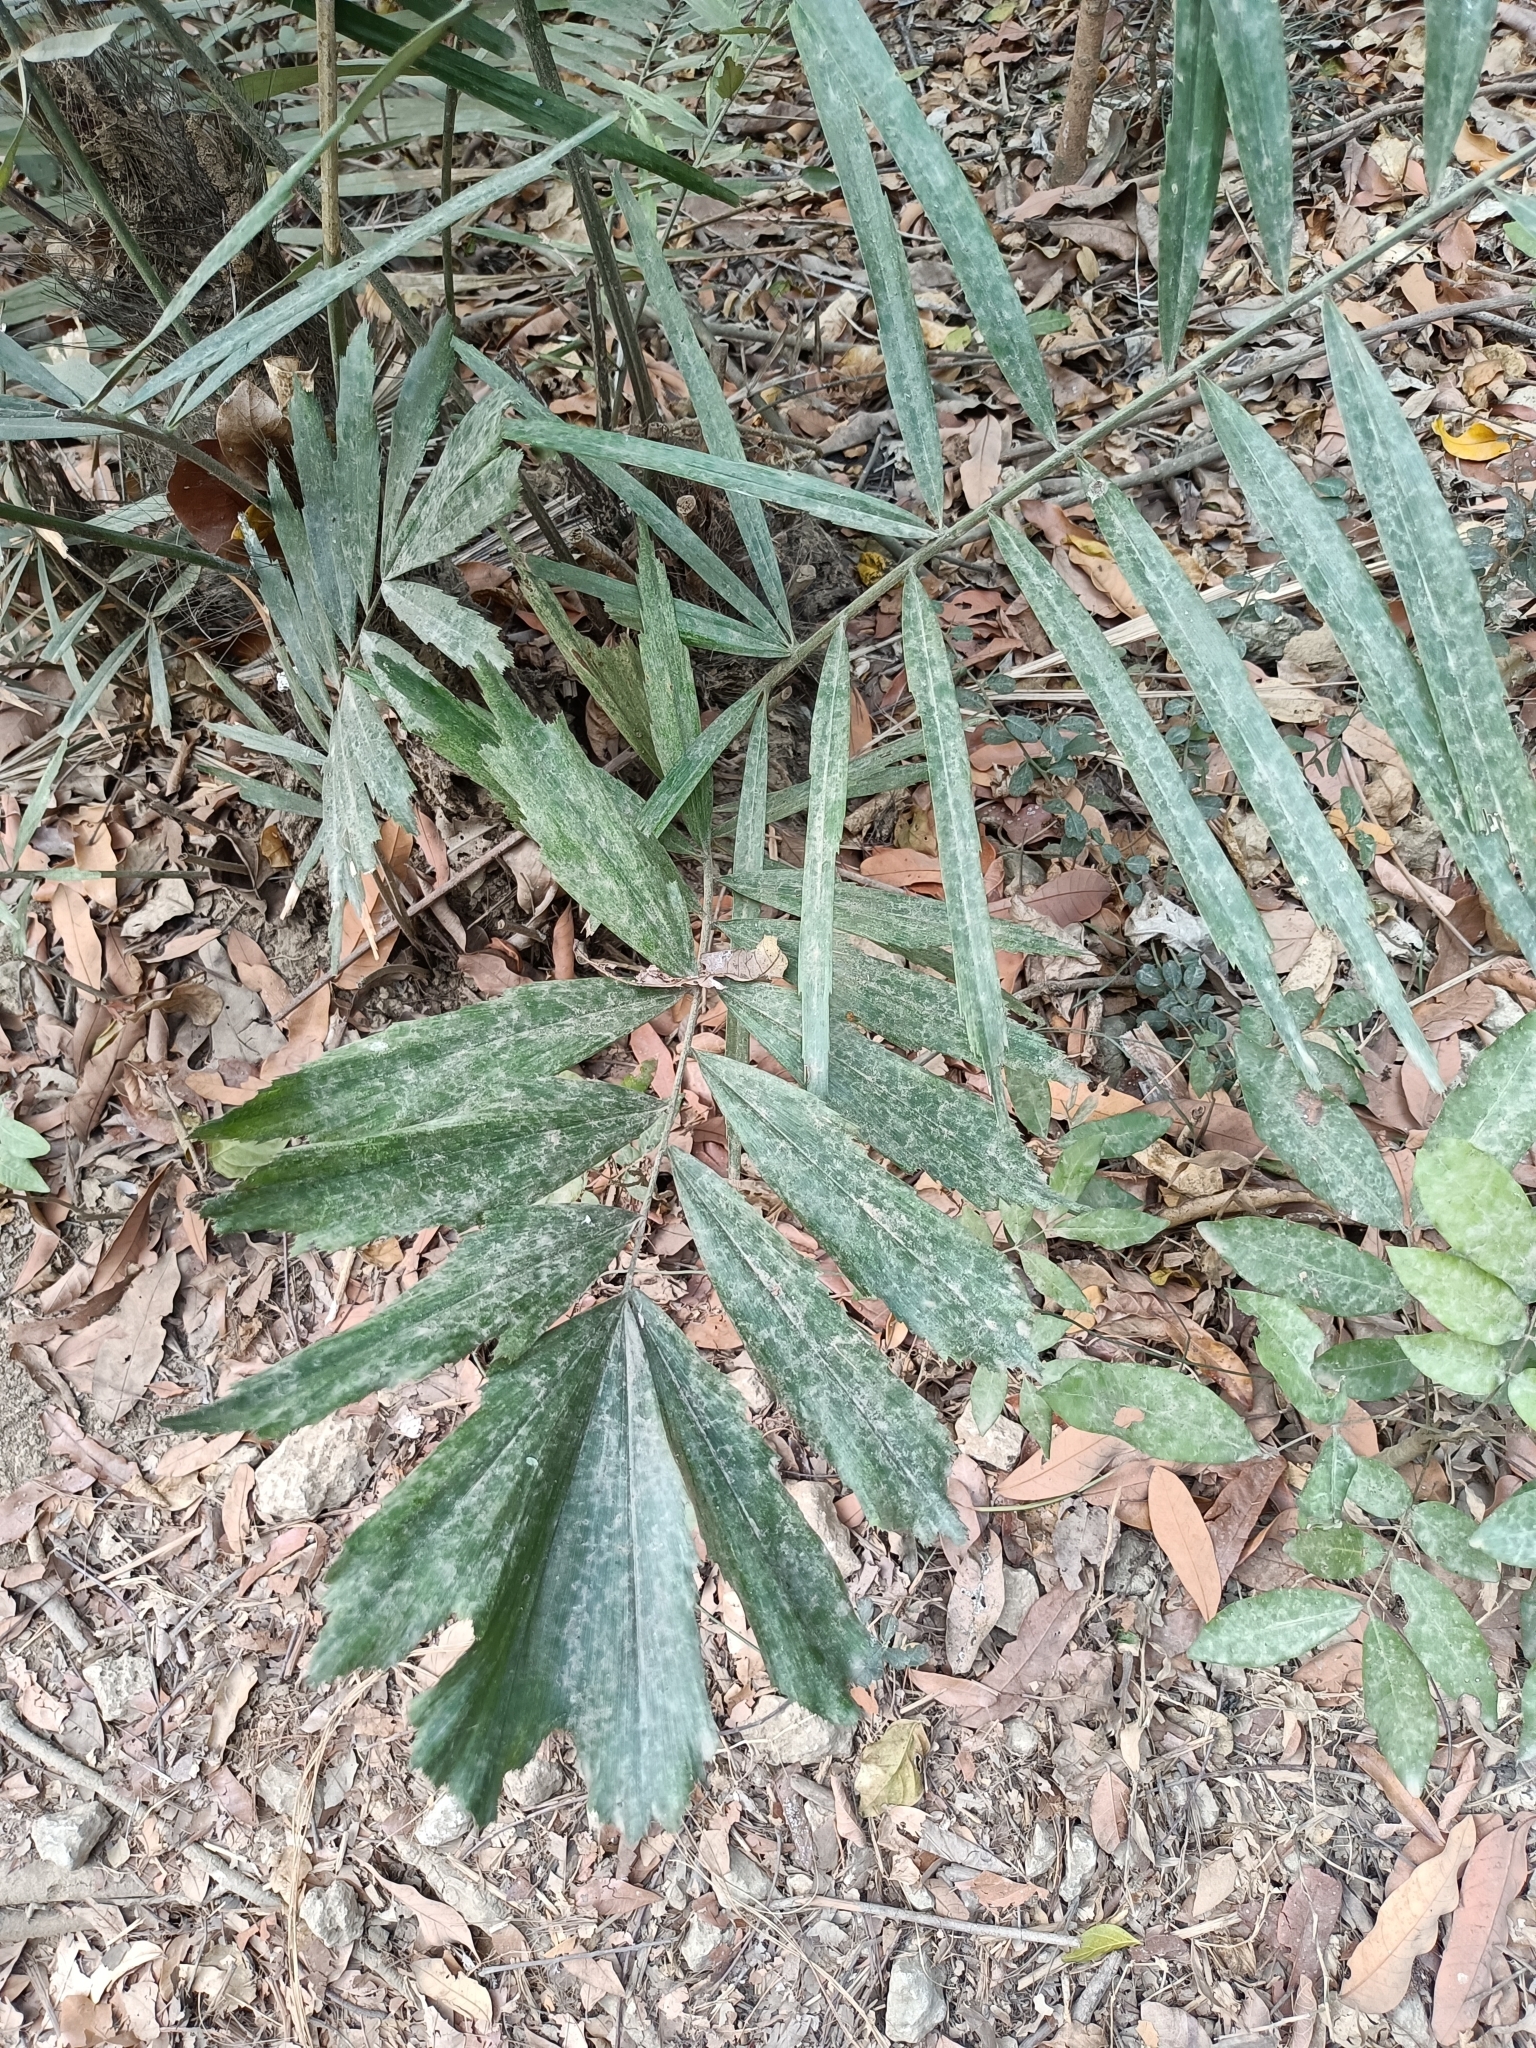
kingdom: Plantae
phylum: Tracheophyta
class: Liliopsida
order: Arecales
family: Arecaceae
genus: Arenga
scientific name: Arenga engleri
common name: Formosan sugar palm
